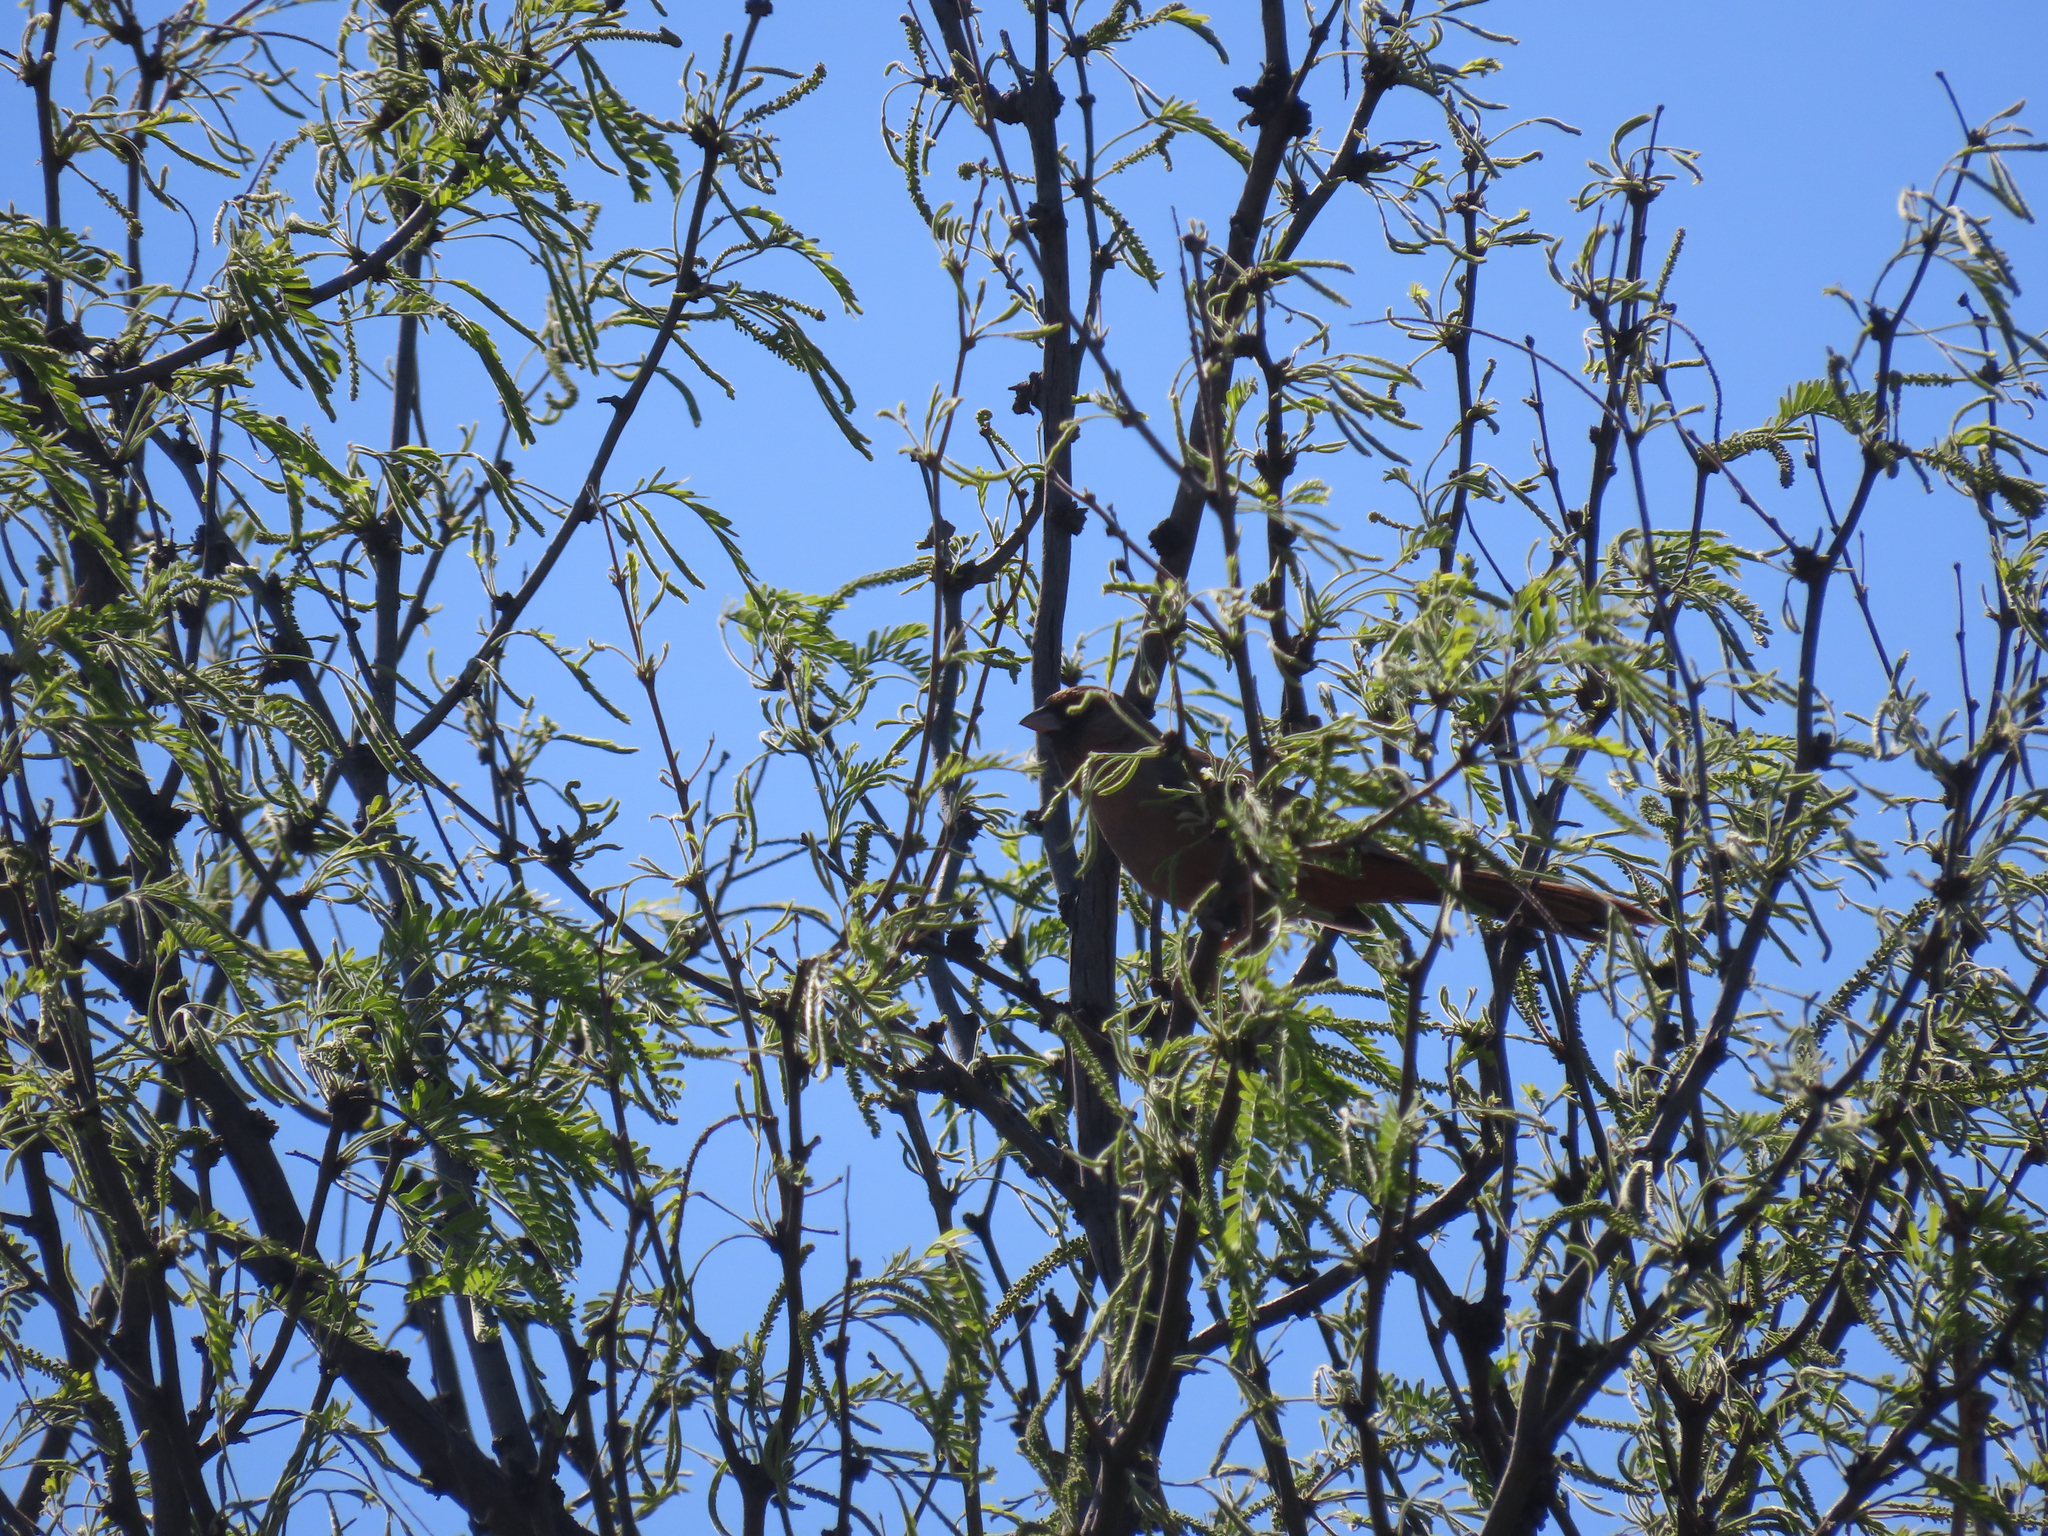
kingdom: Animalia
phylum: Chordata
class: Aves
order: Passeriformes
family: Passerellidae
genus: Melozone
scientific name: Melozone aberti
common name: Abert's towhee
